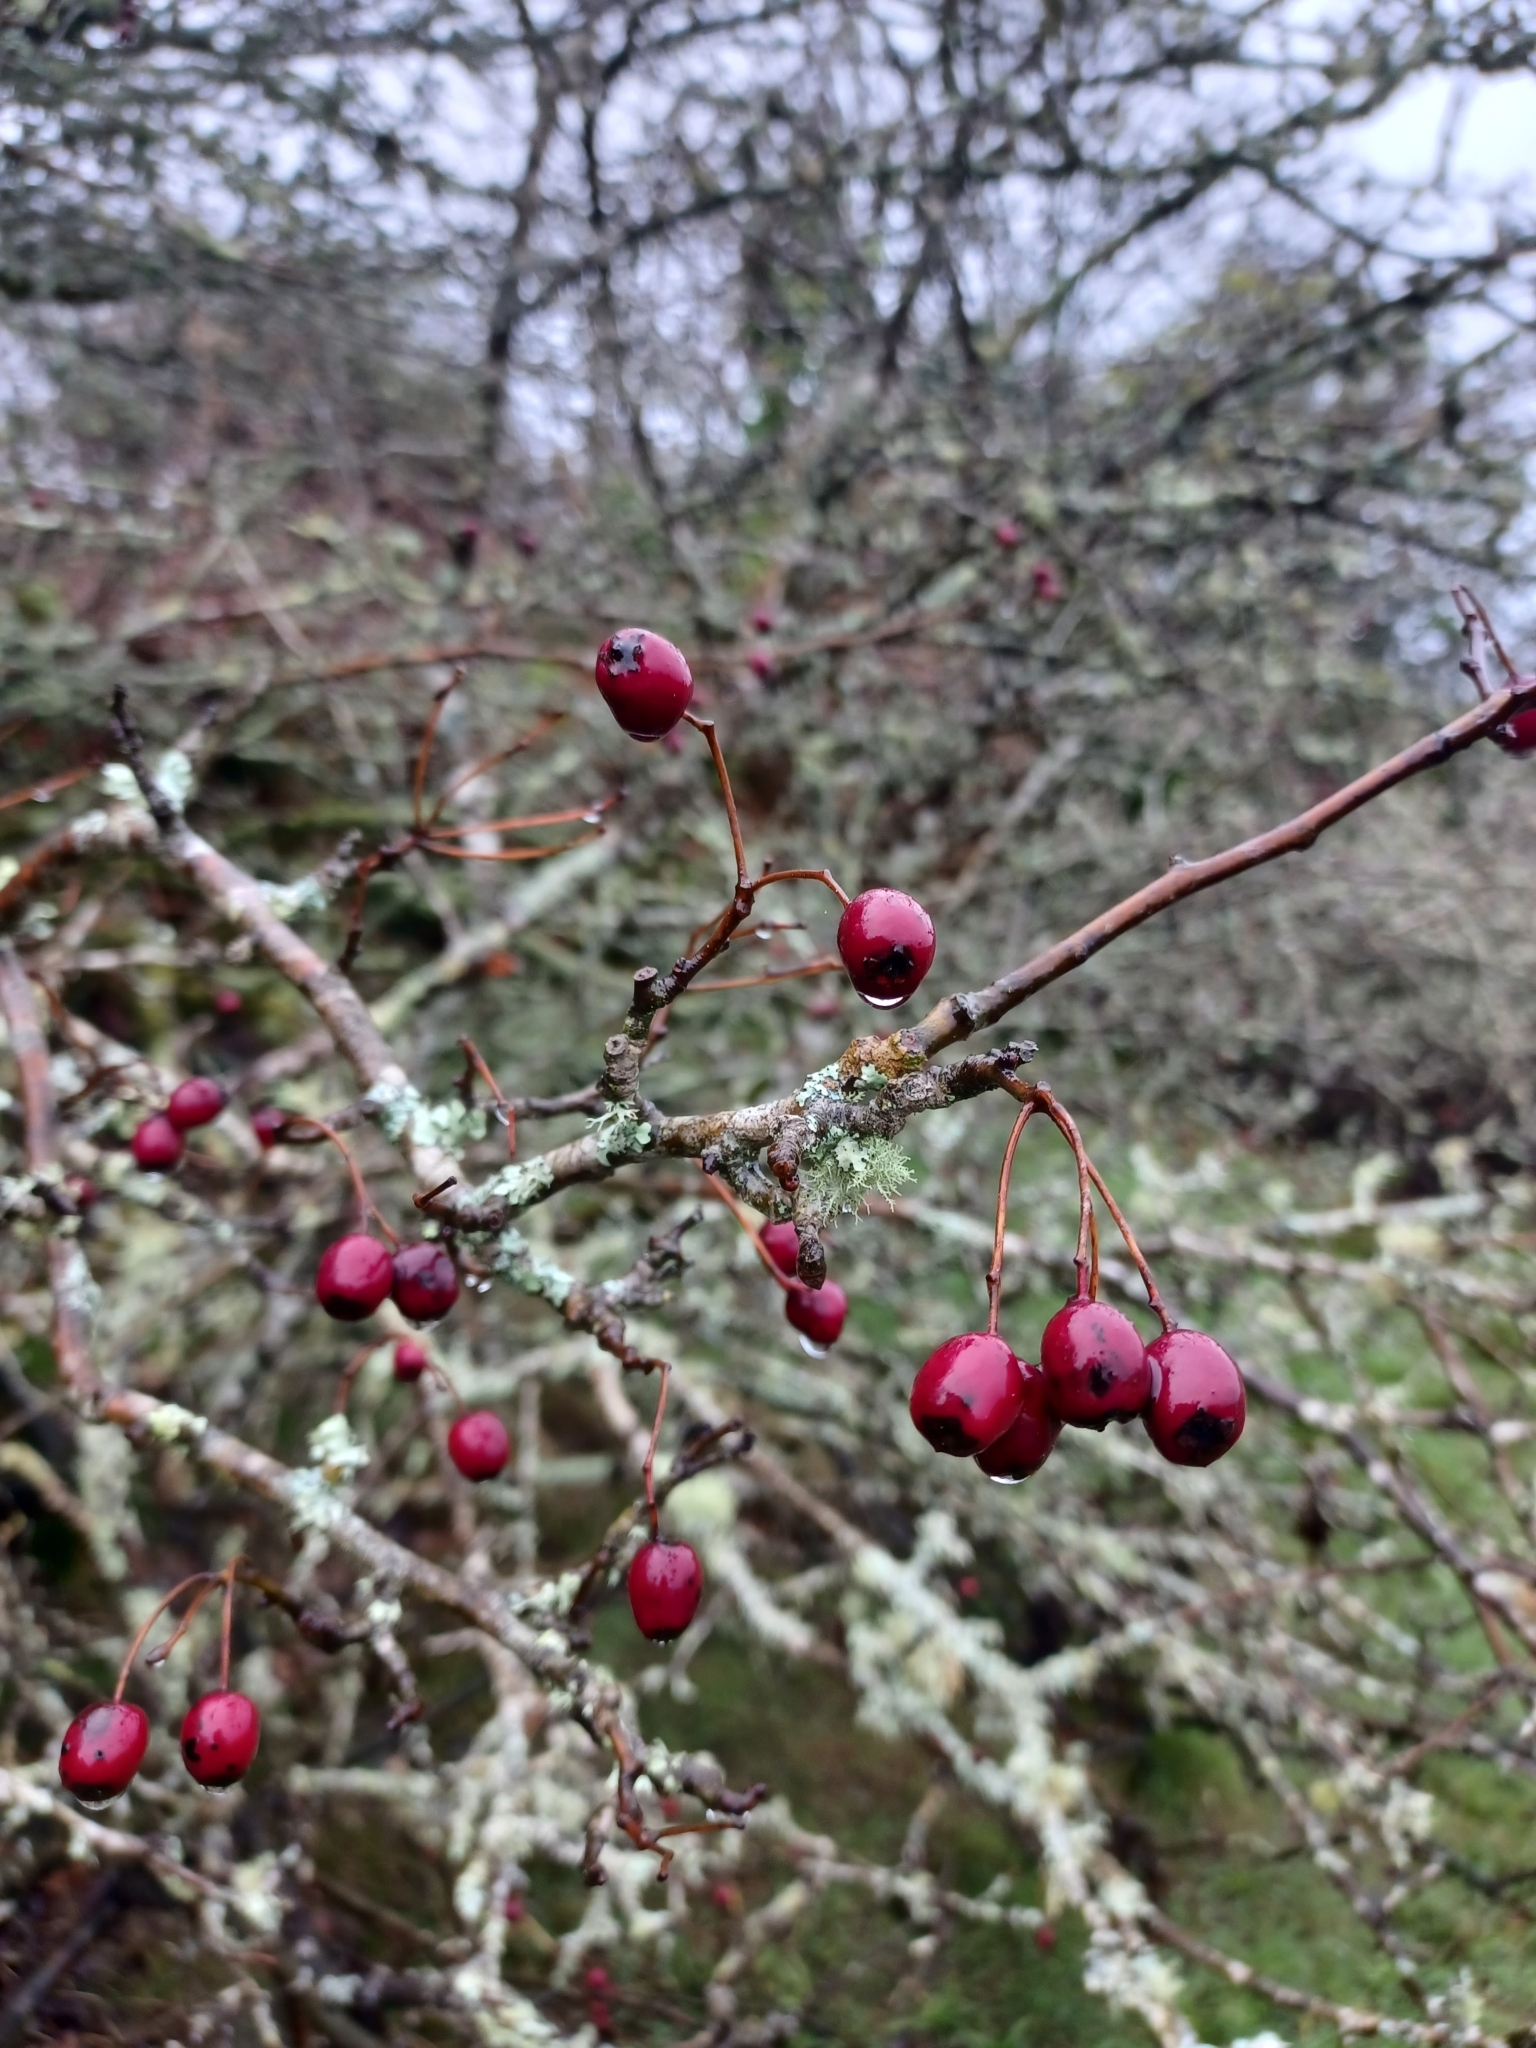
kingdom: Plantae
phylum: Tracheophyta
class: Magnoliopsida
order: Rosales
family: Rosaceae
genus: Crataegus
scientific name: Crataegus monogyna
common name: Hawthorn
